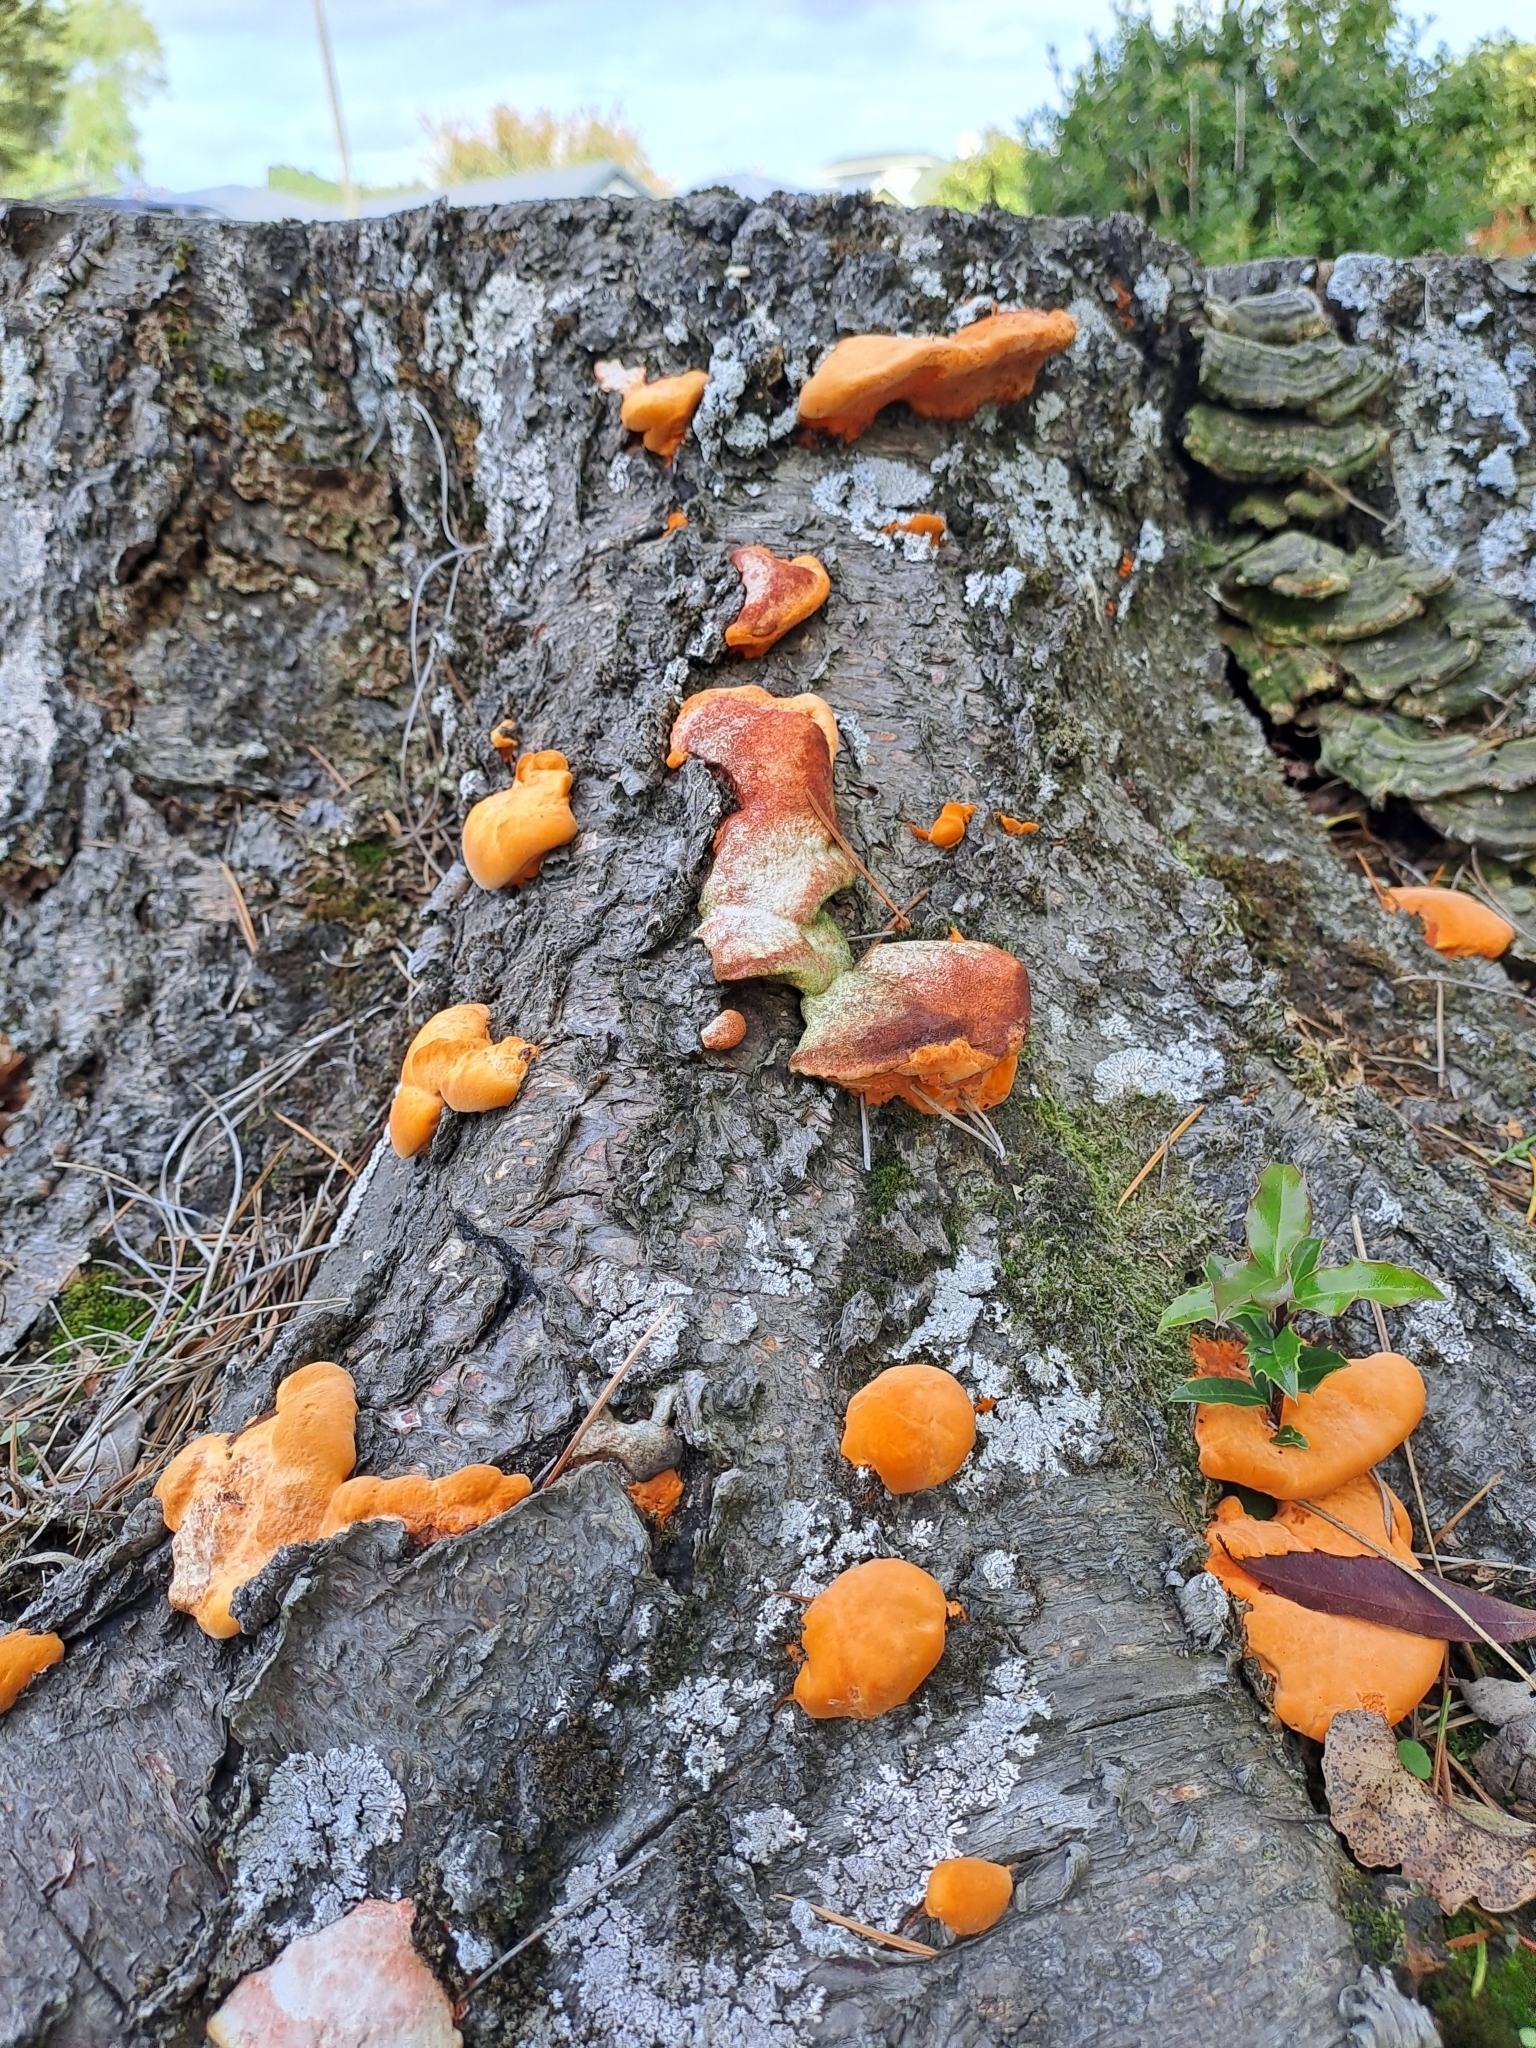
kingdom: Fungi
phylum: Basidiomycota
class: Agaricomycetes
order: Polyporales
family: Polyporaceae
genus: Trametes
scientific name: Trametes coccinea
